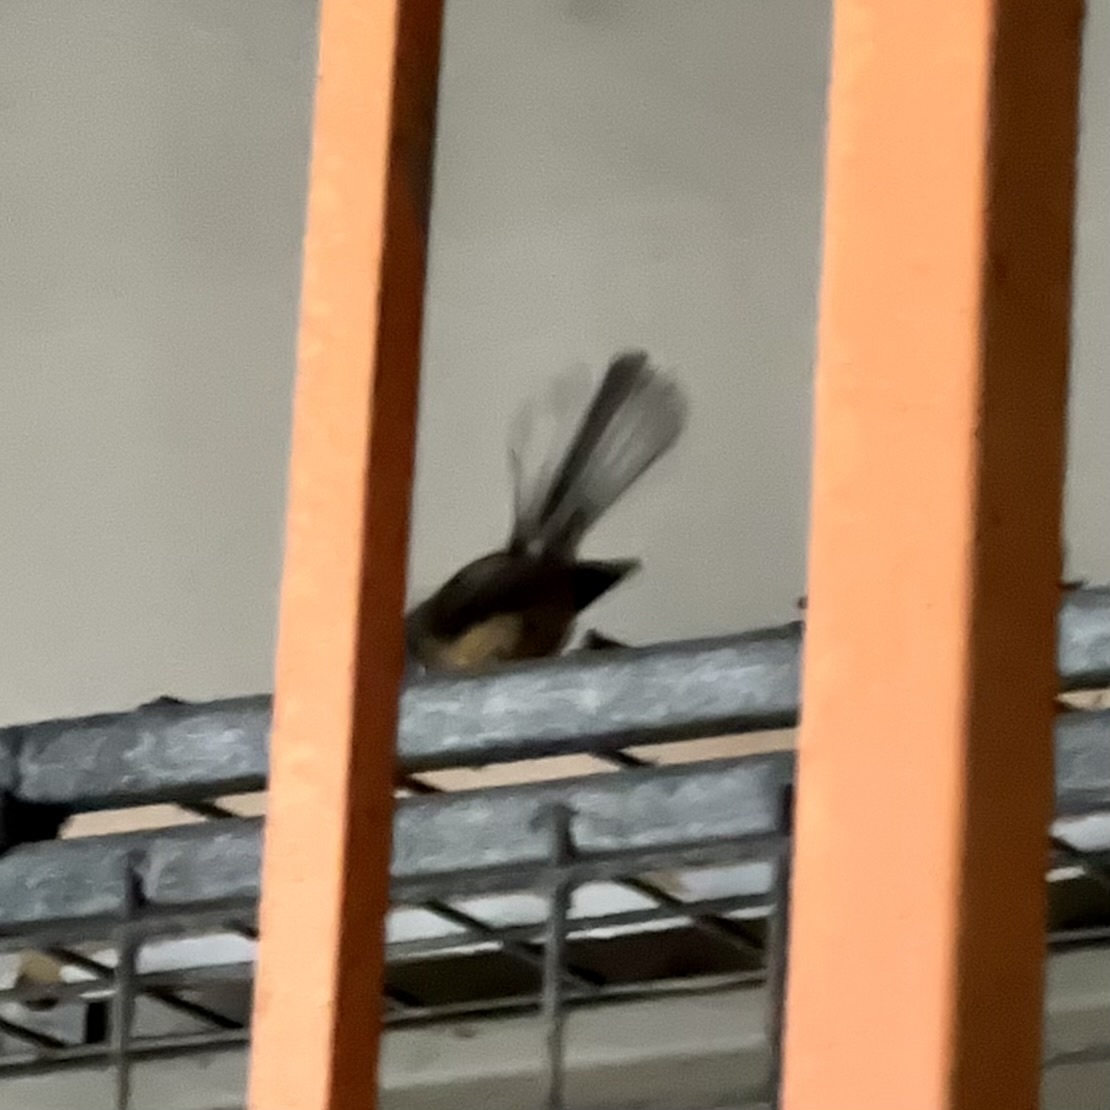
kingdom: Animalia
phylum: Chordata
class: Aves
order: Passeriformes
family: Rhipiduridae
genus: Rhipidura
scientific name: Rhipidura fuliginosa
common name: New zealand fantail
